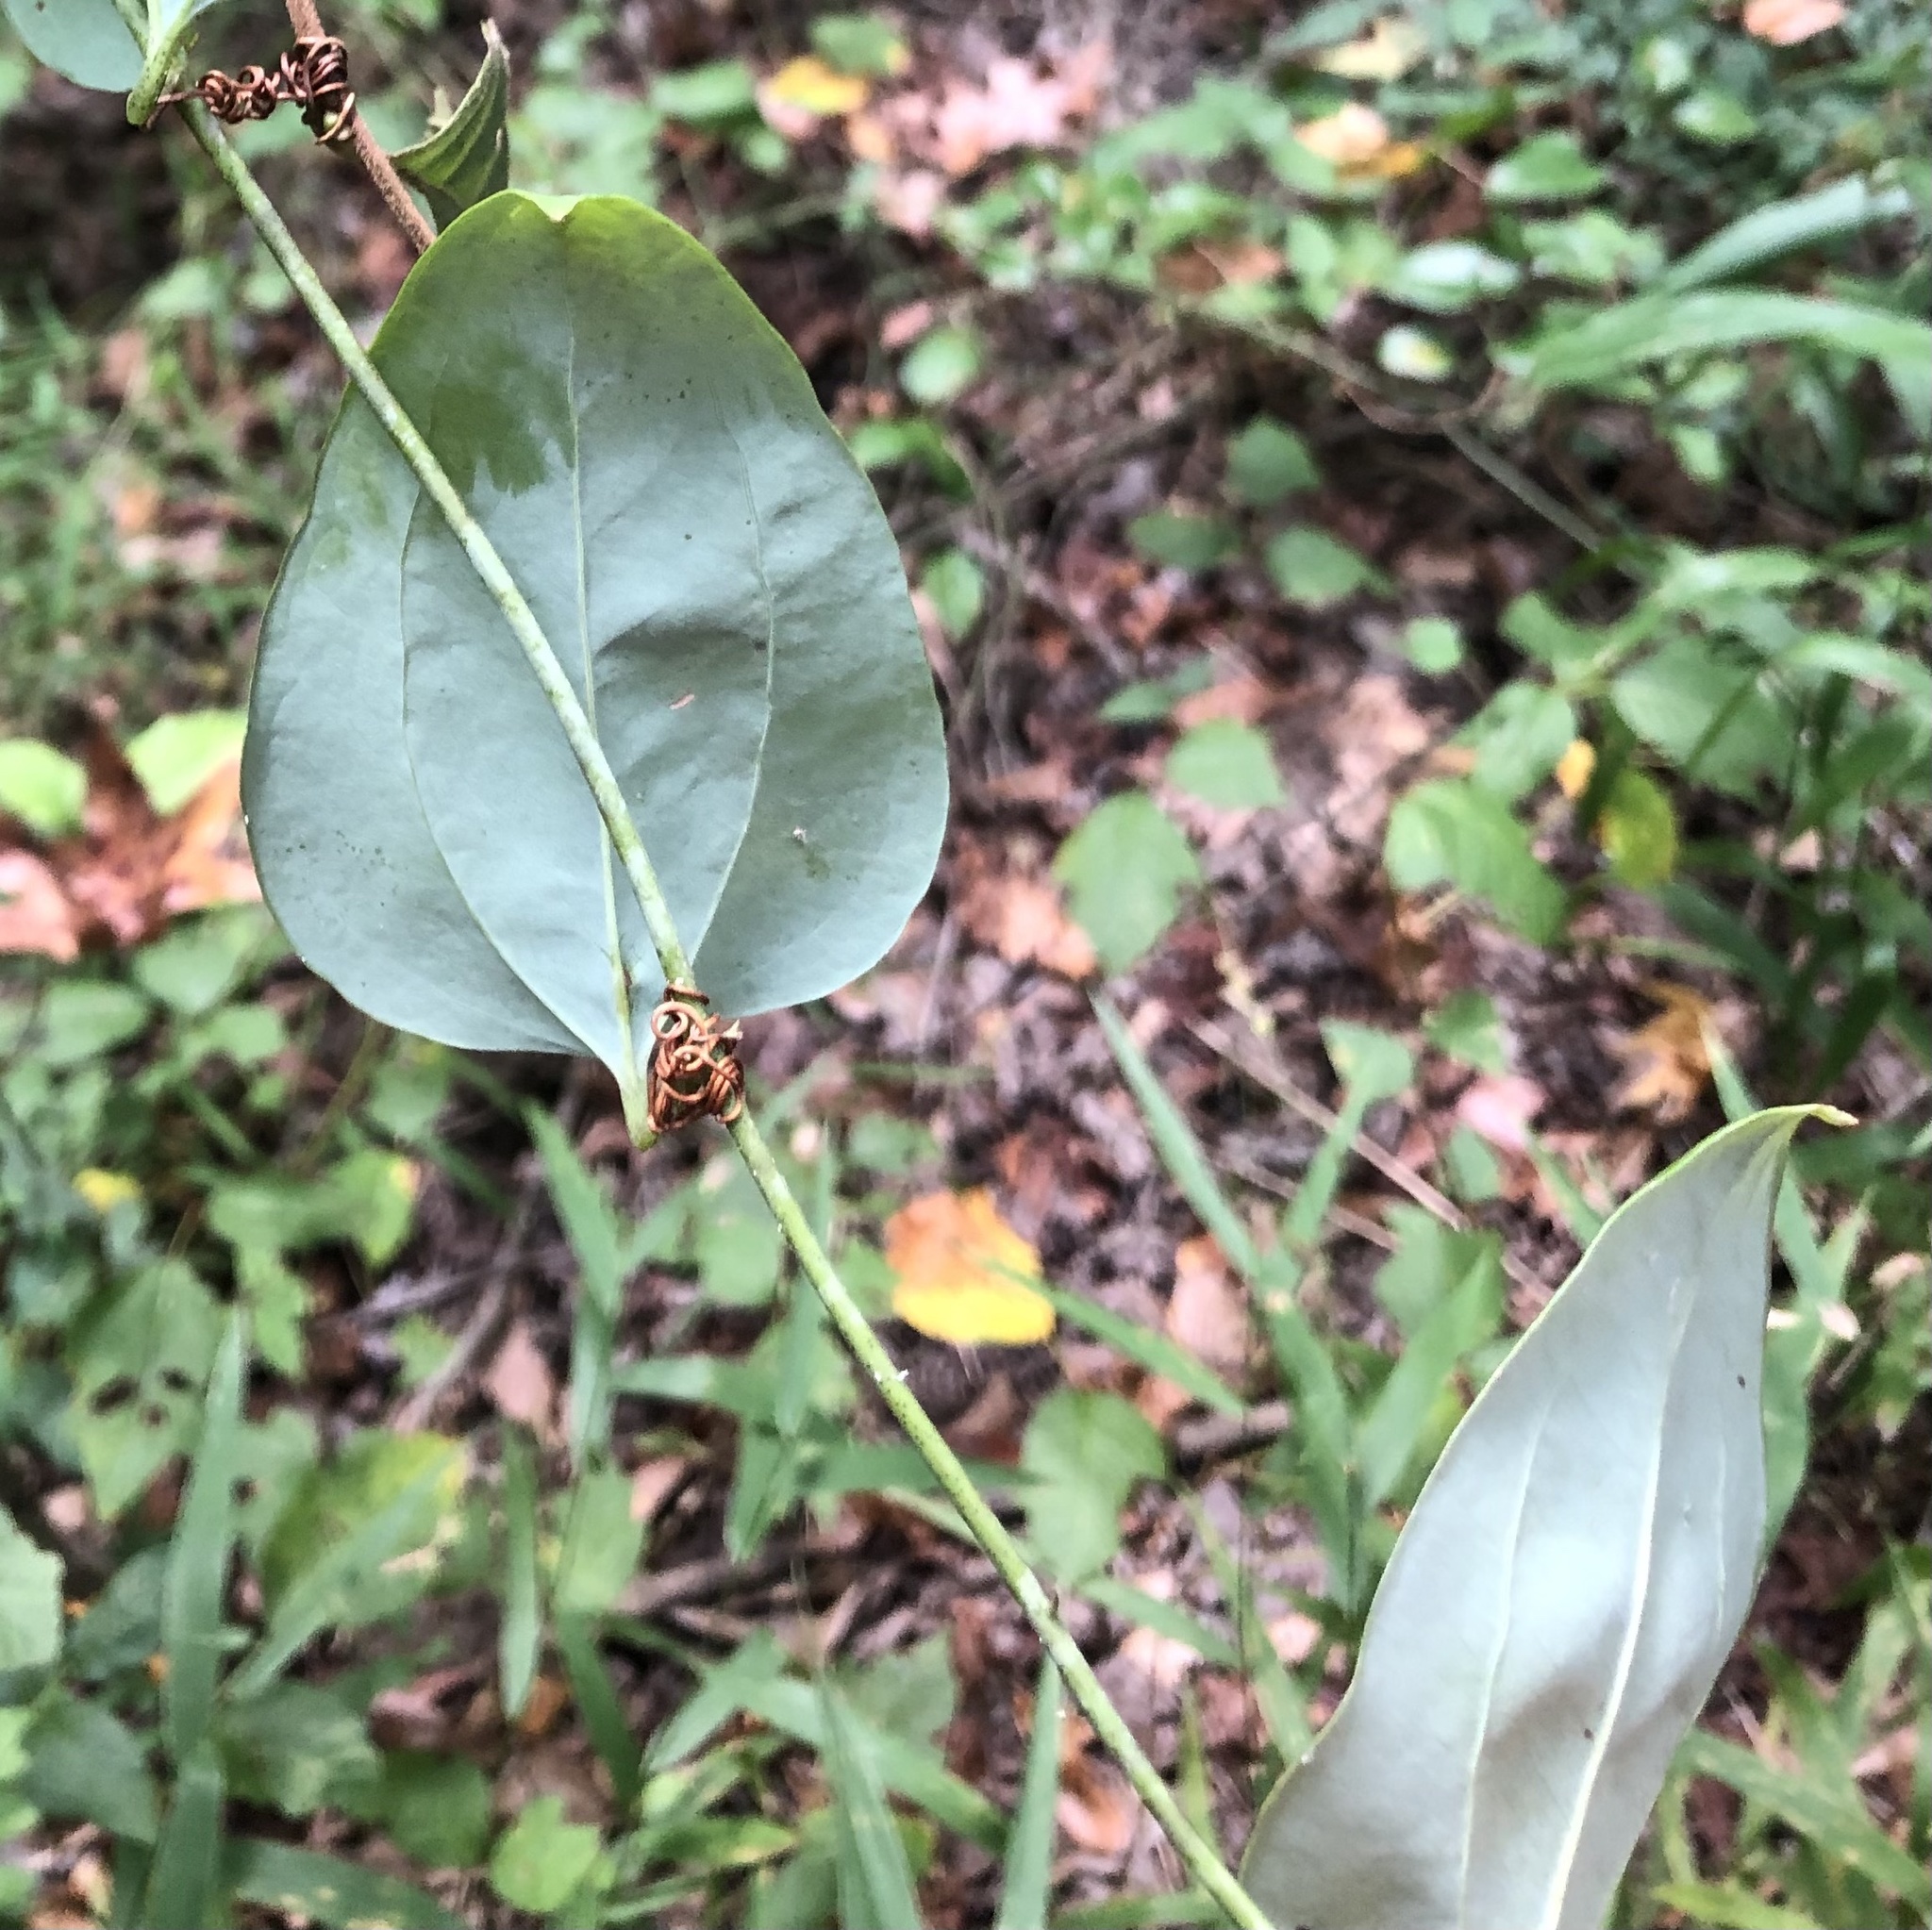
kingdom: Plantae
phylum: Tracheophyta
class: Liliopsida
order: Liliales
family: Smilacaceae
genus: Smilax
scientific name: Smilax glauca
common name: Cat greenbrier
